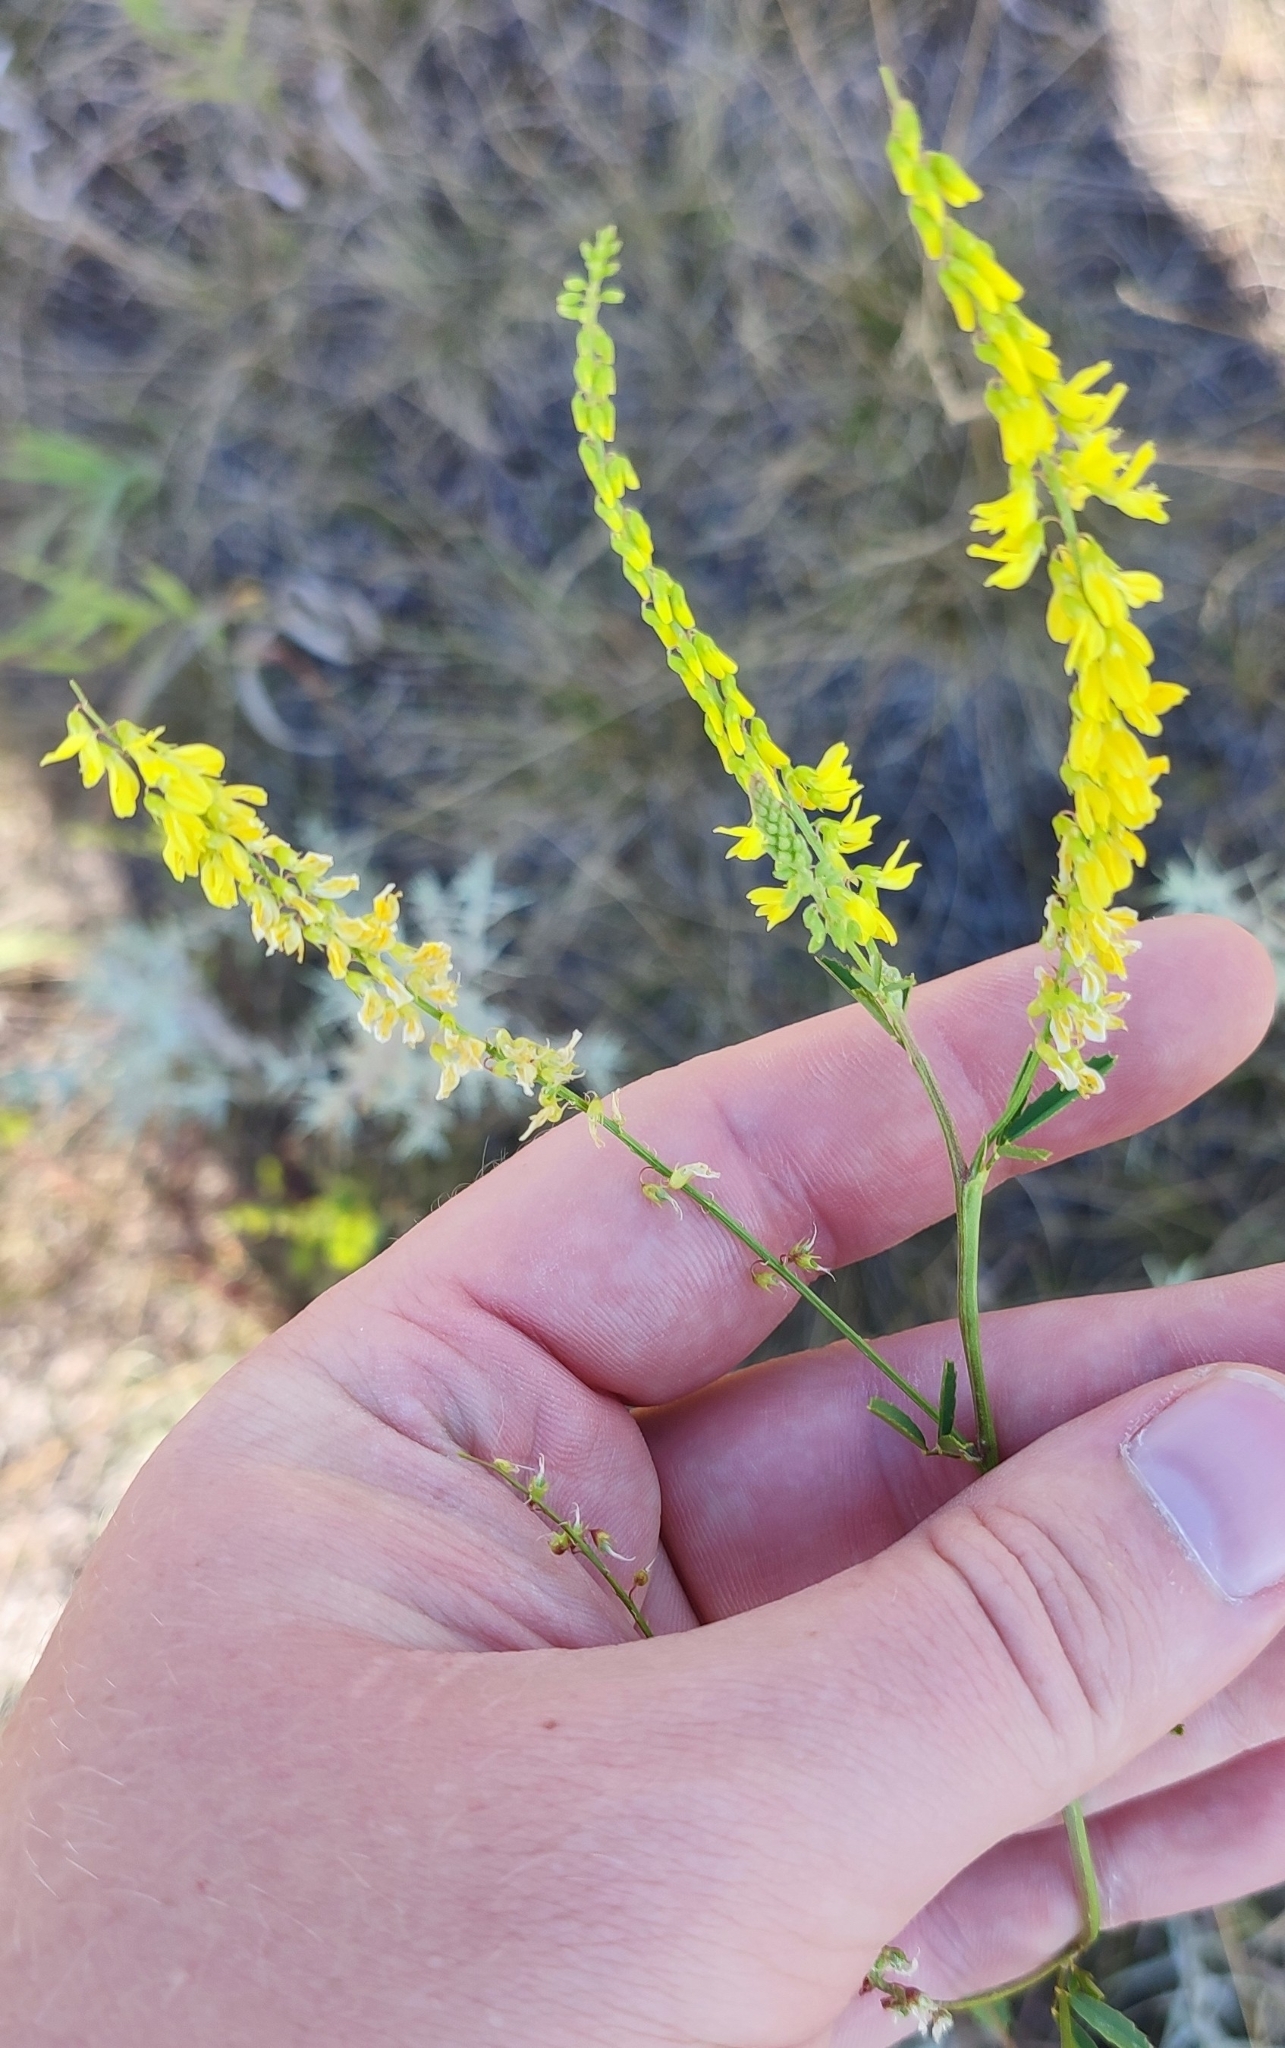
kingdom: Plantae
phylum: Tracheophyta
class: Magnoliopsida
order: Fabales
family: Fabaceae
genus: Melilotus
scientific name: Melilotus officinalis
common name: Sweetclover
